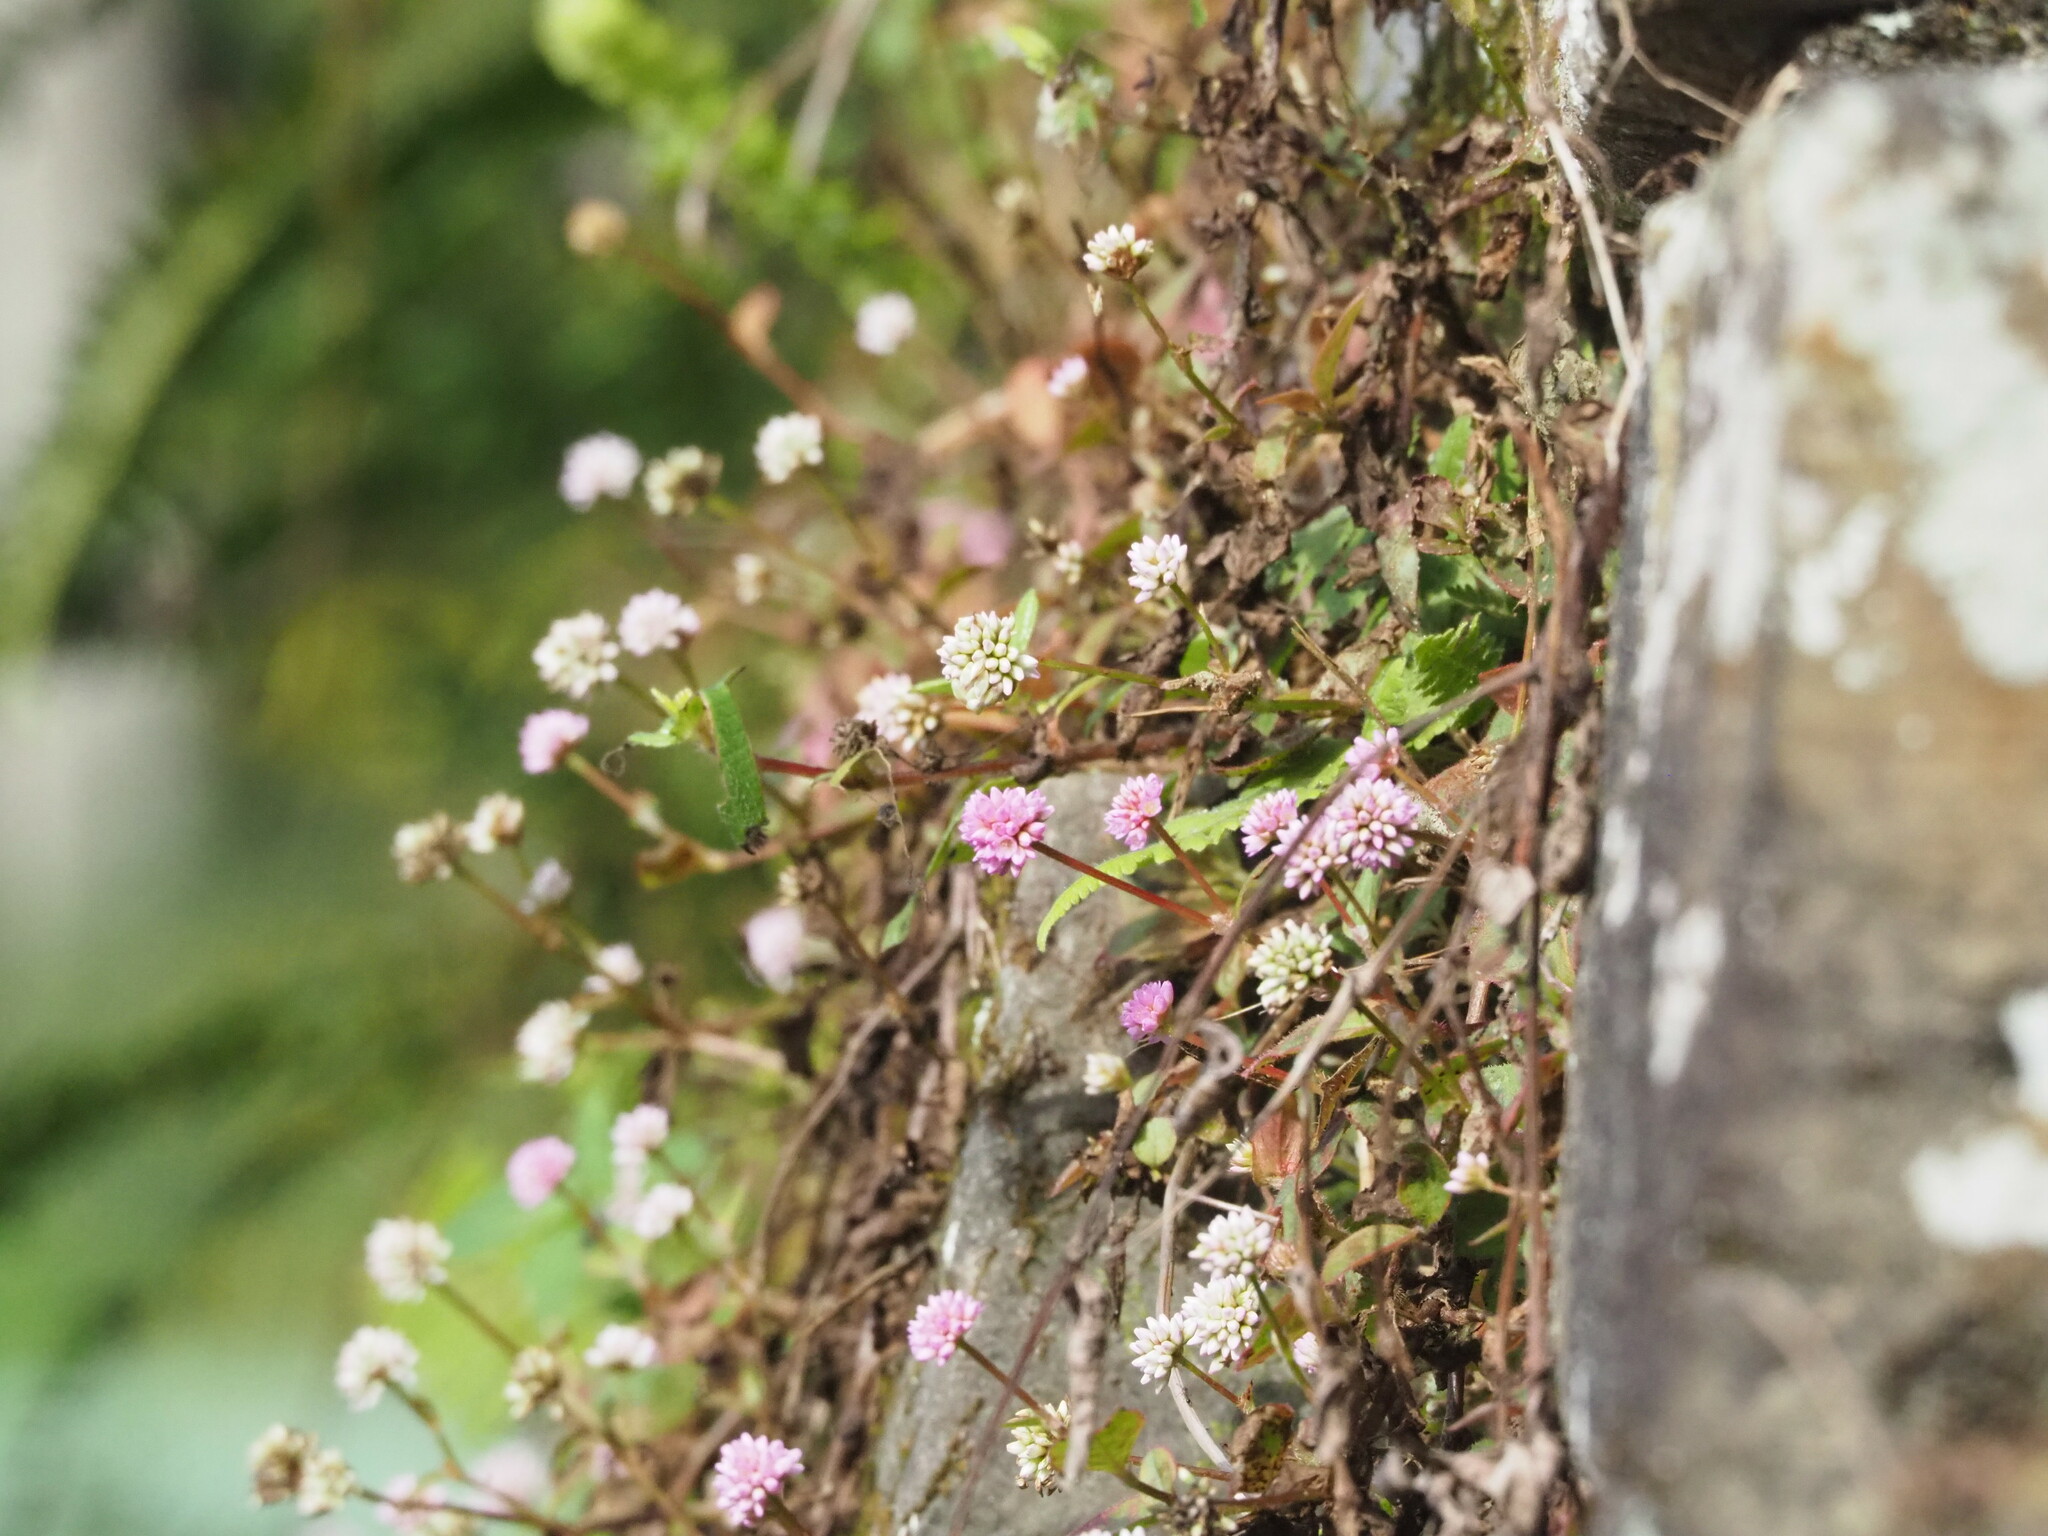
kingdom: Plantae
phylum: Tracheophyta
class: Magnoliopsida
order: Caryophyllales
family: Polygonaceae
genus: Persicaria
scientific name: Persicaria capitata
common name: Pinkhead smartweed
